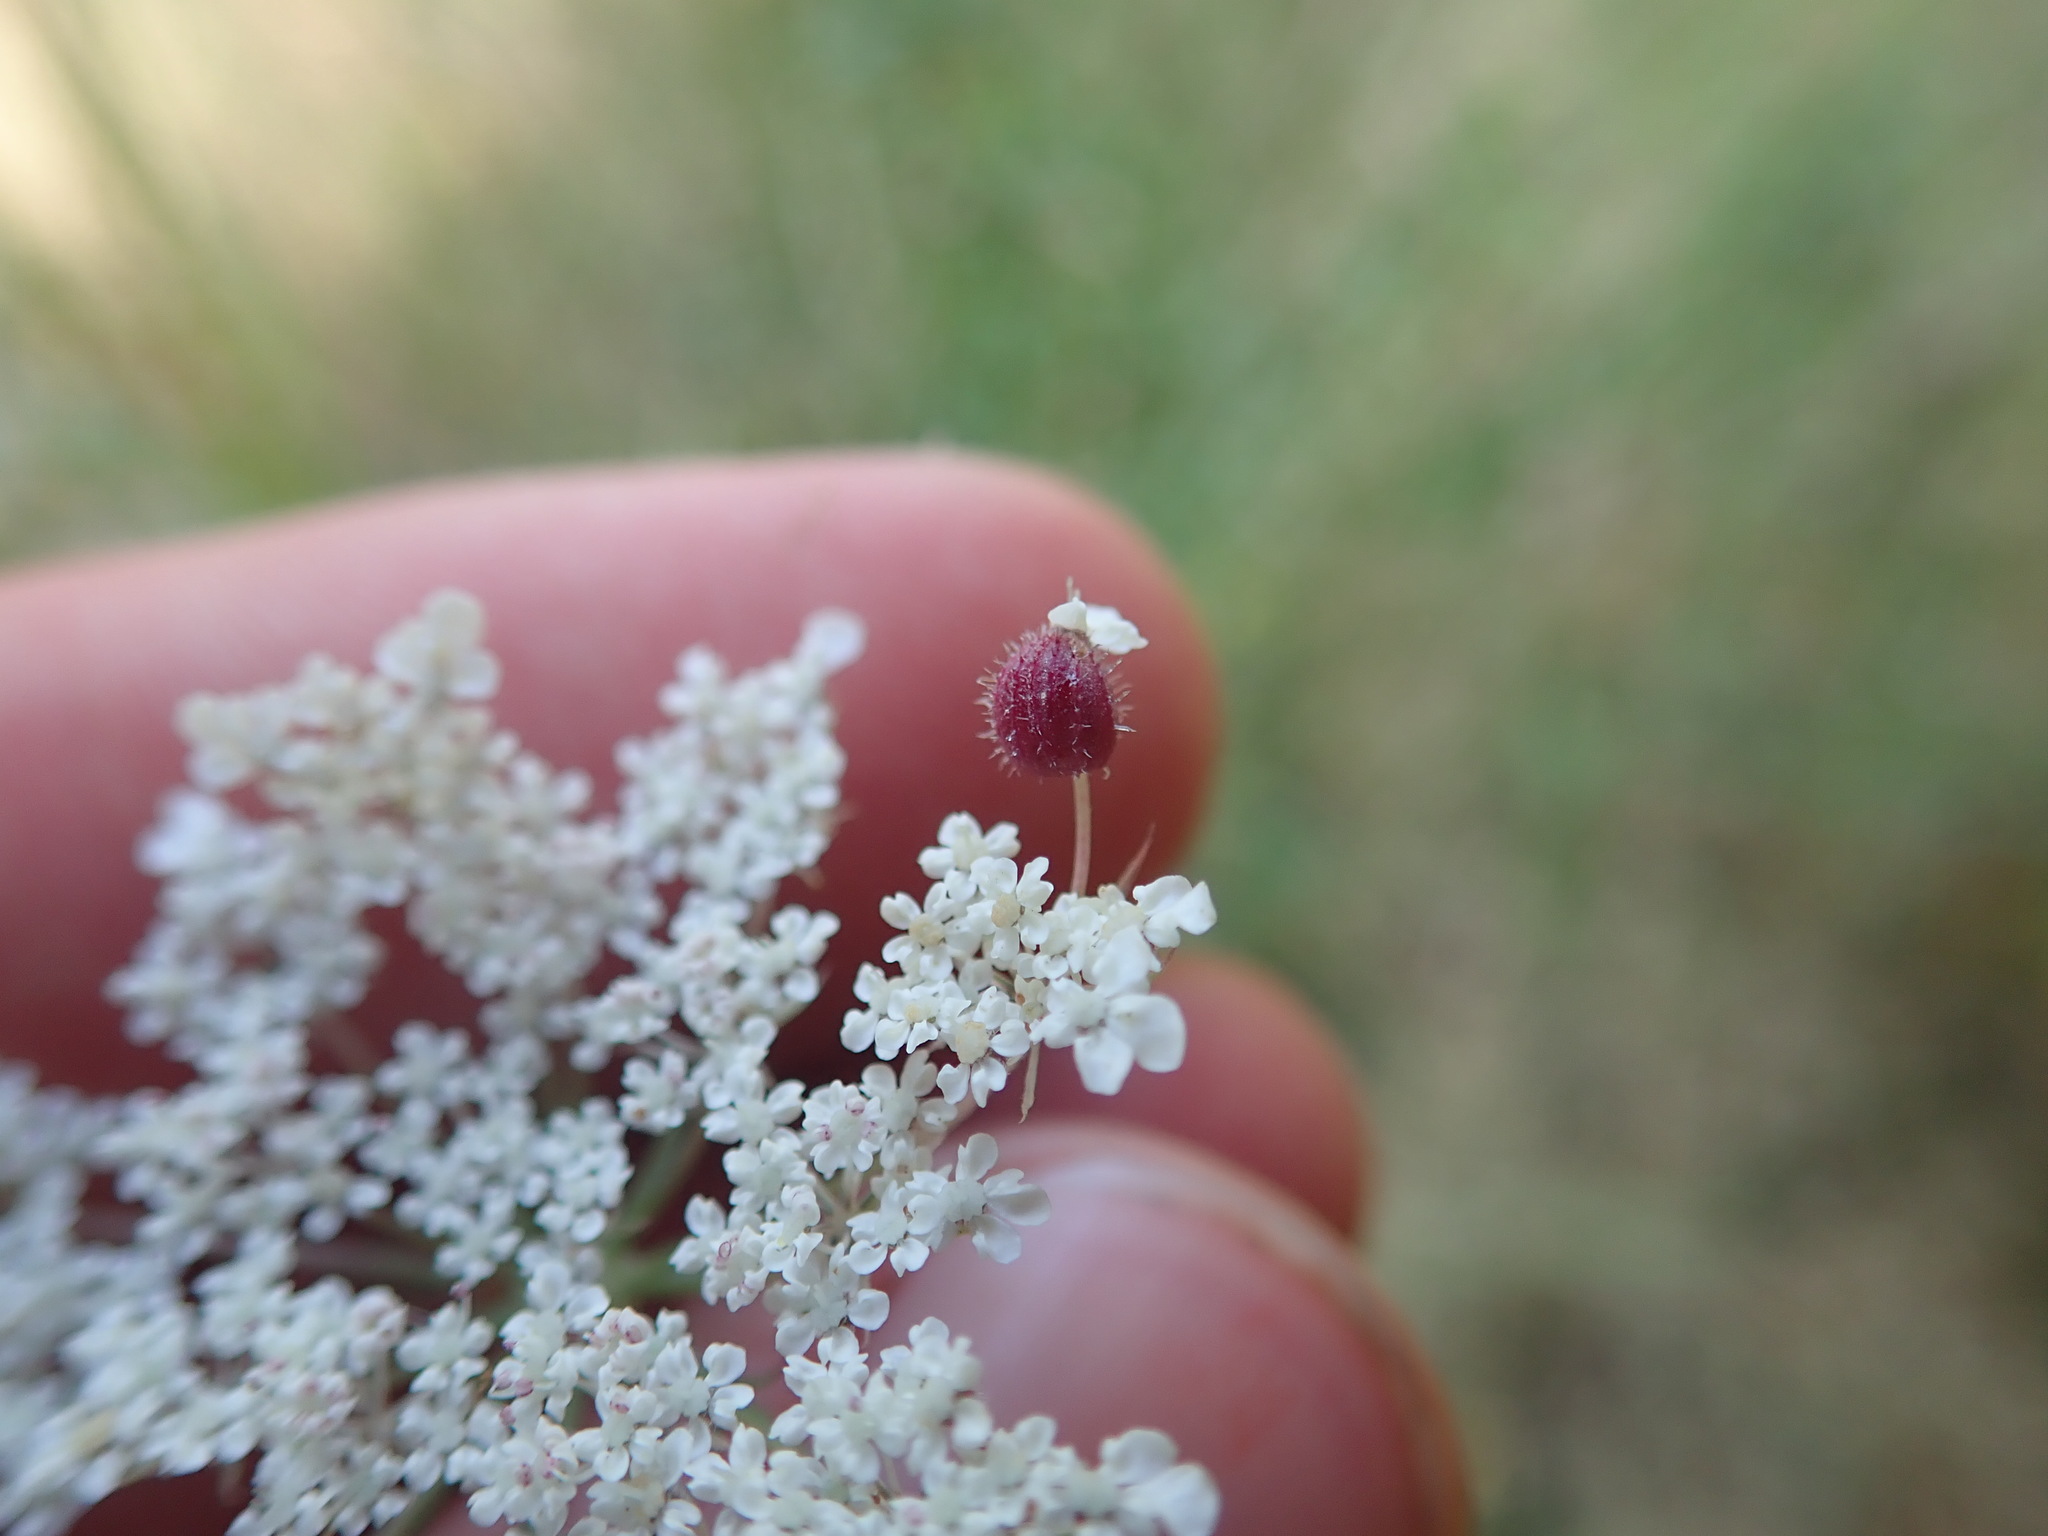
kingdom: Animalia
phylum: Arthropoda
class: Insecta
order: Diptera
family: Cecidomyiidae
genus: Kiefferia
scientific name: Kiefferia pericarpiicola
